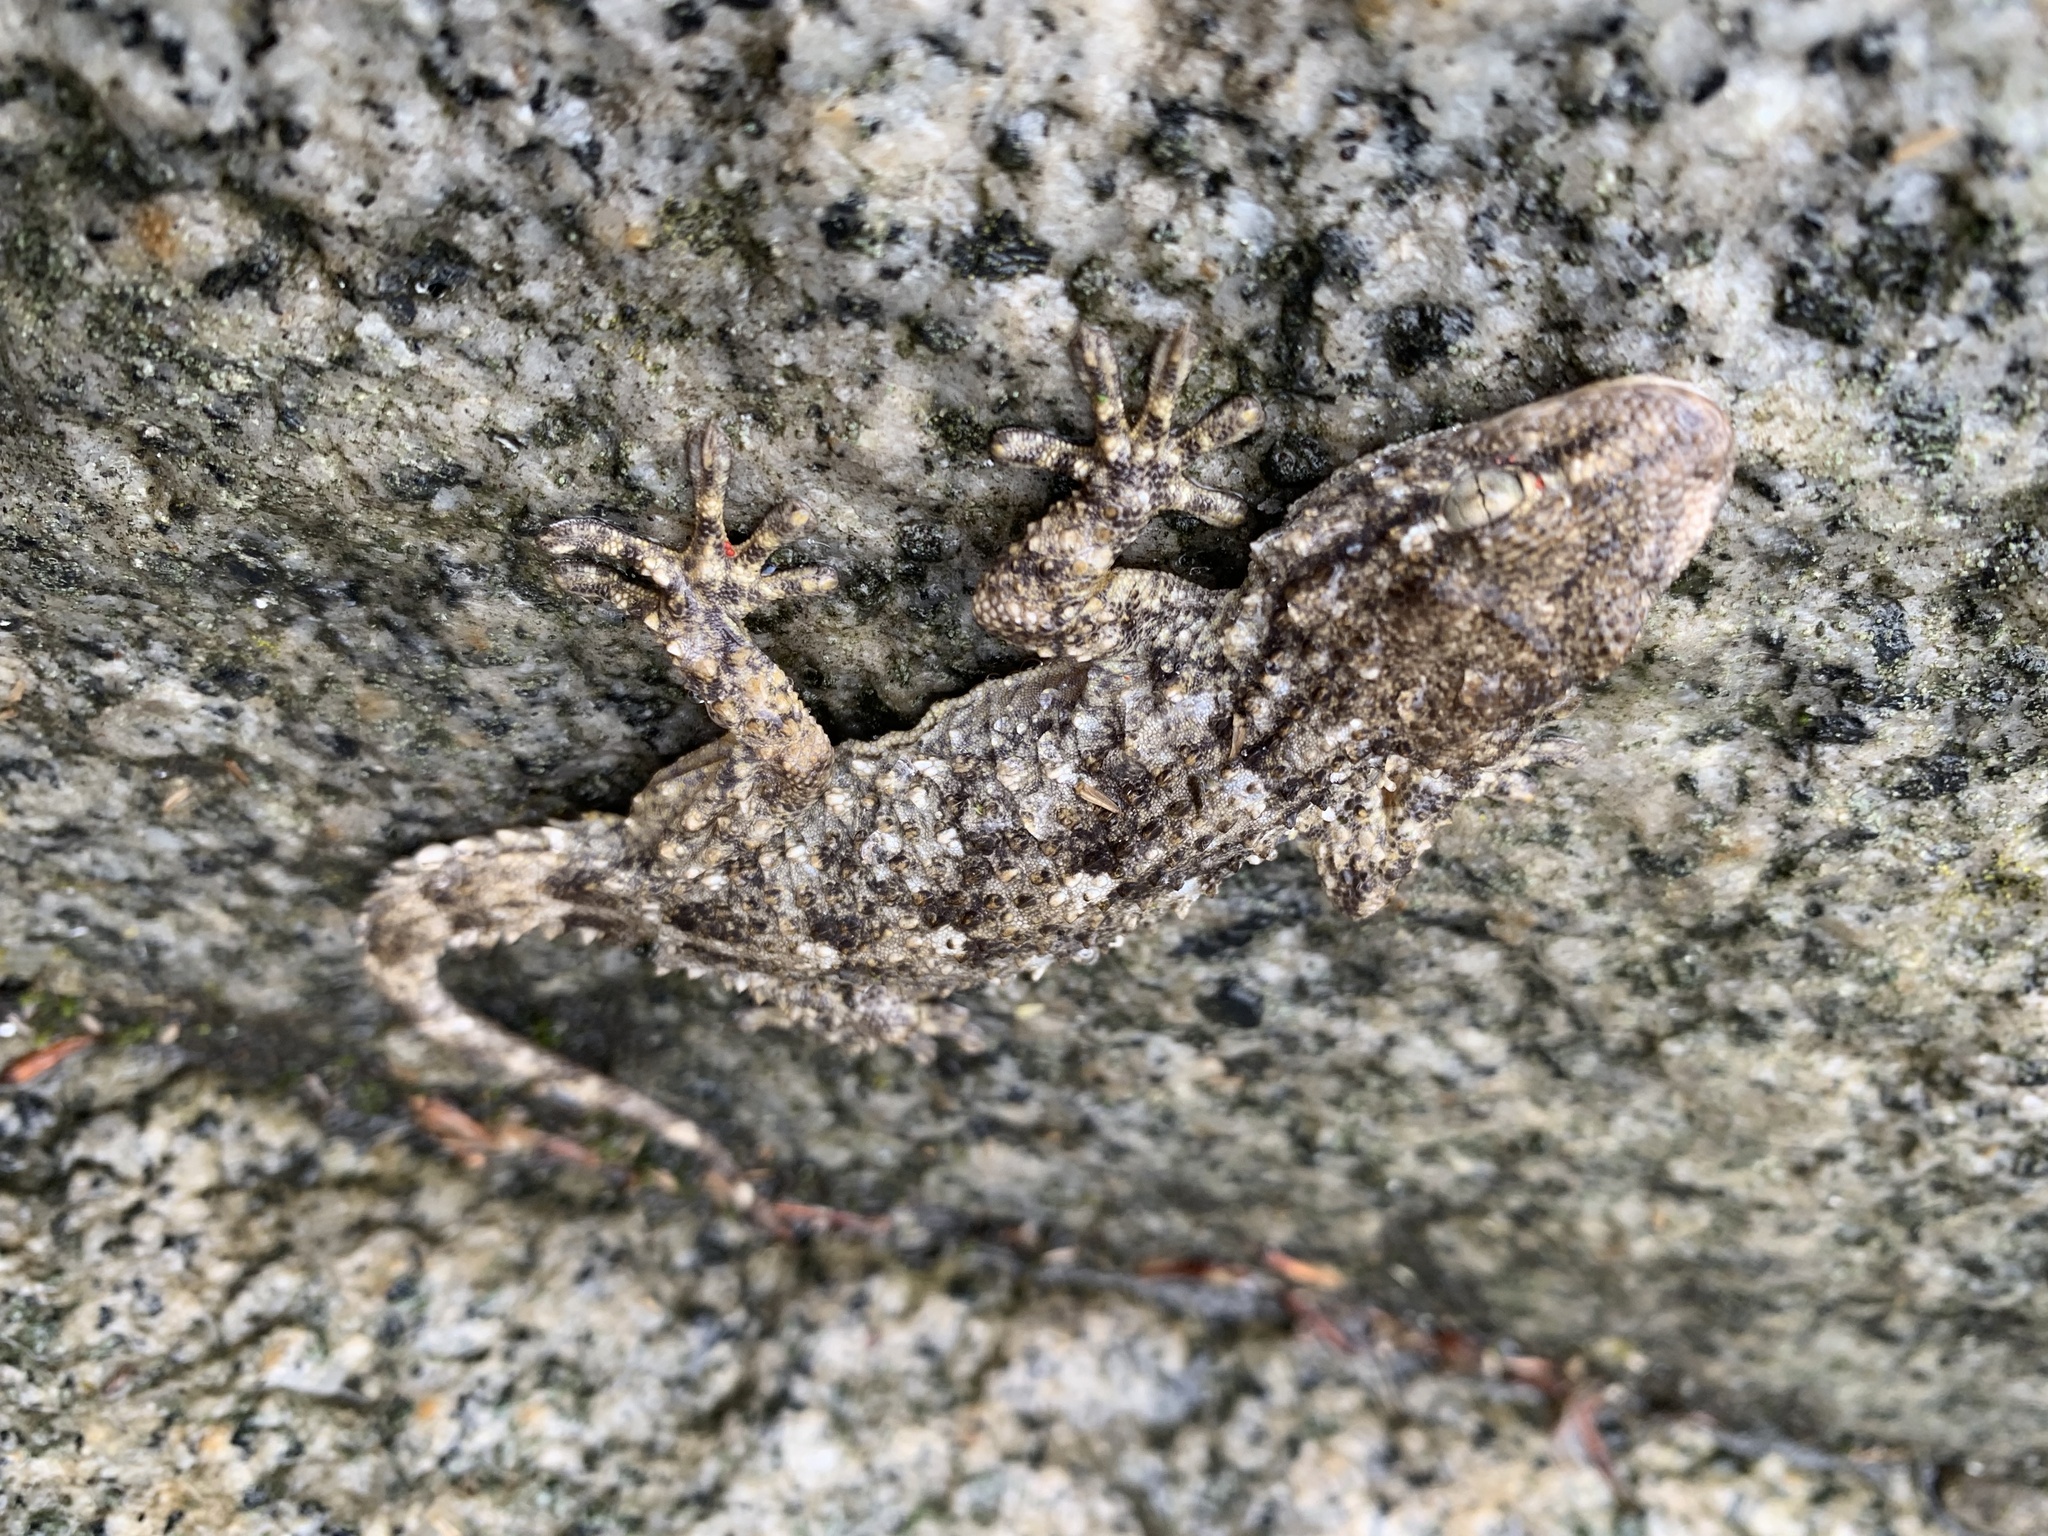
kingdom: Animalia
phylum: Chordata
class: Squamata
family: Phyllodactylidae
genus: Tarentola
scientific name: Tarentola mauritanica
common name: Moorish gecko
